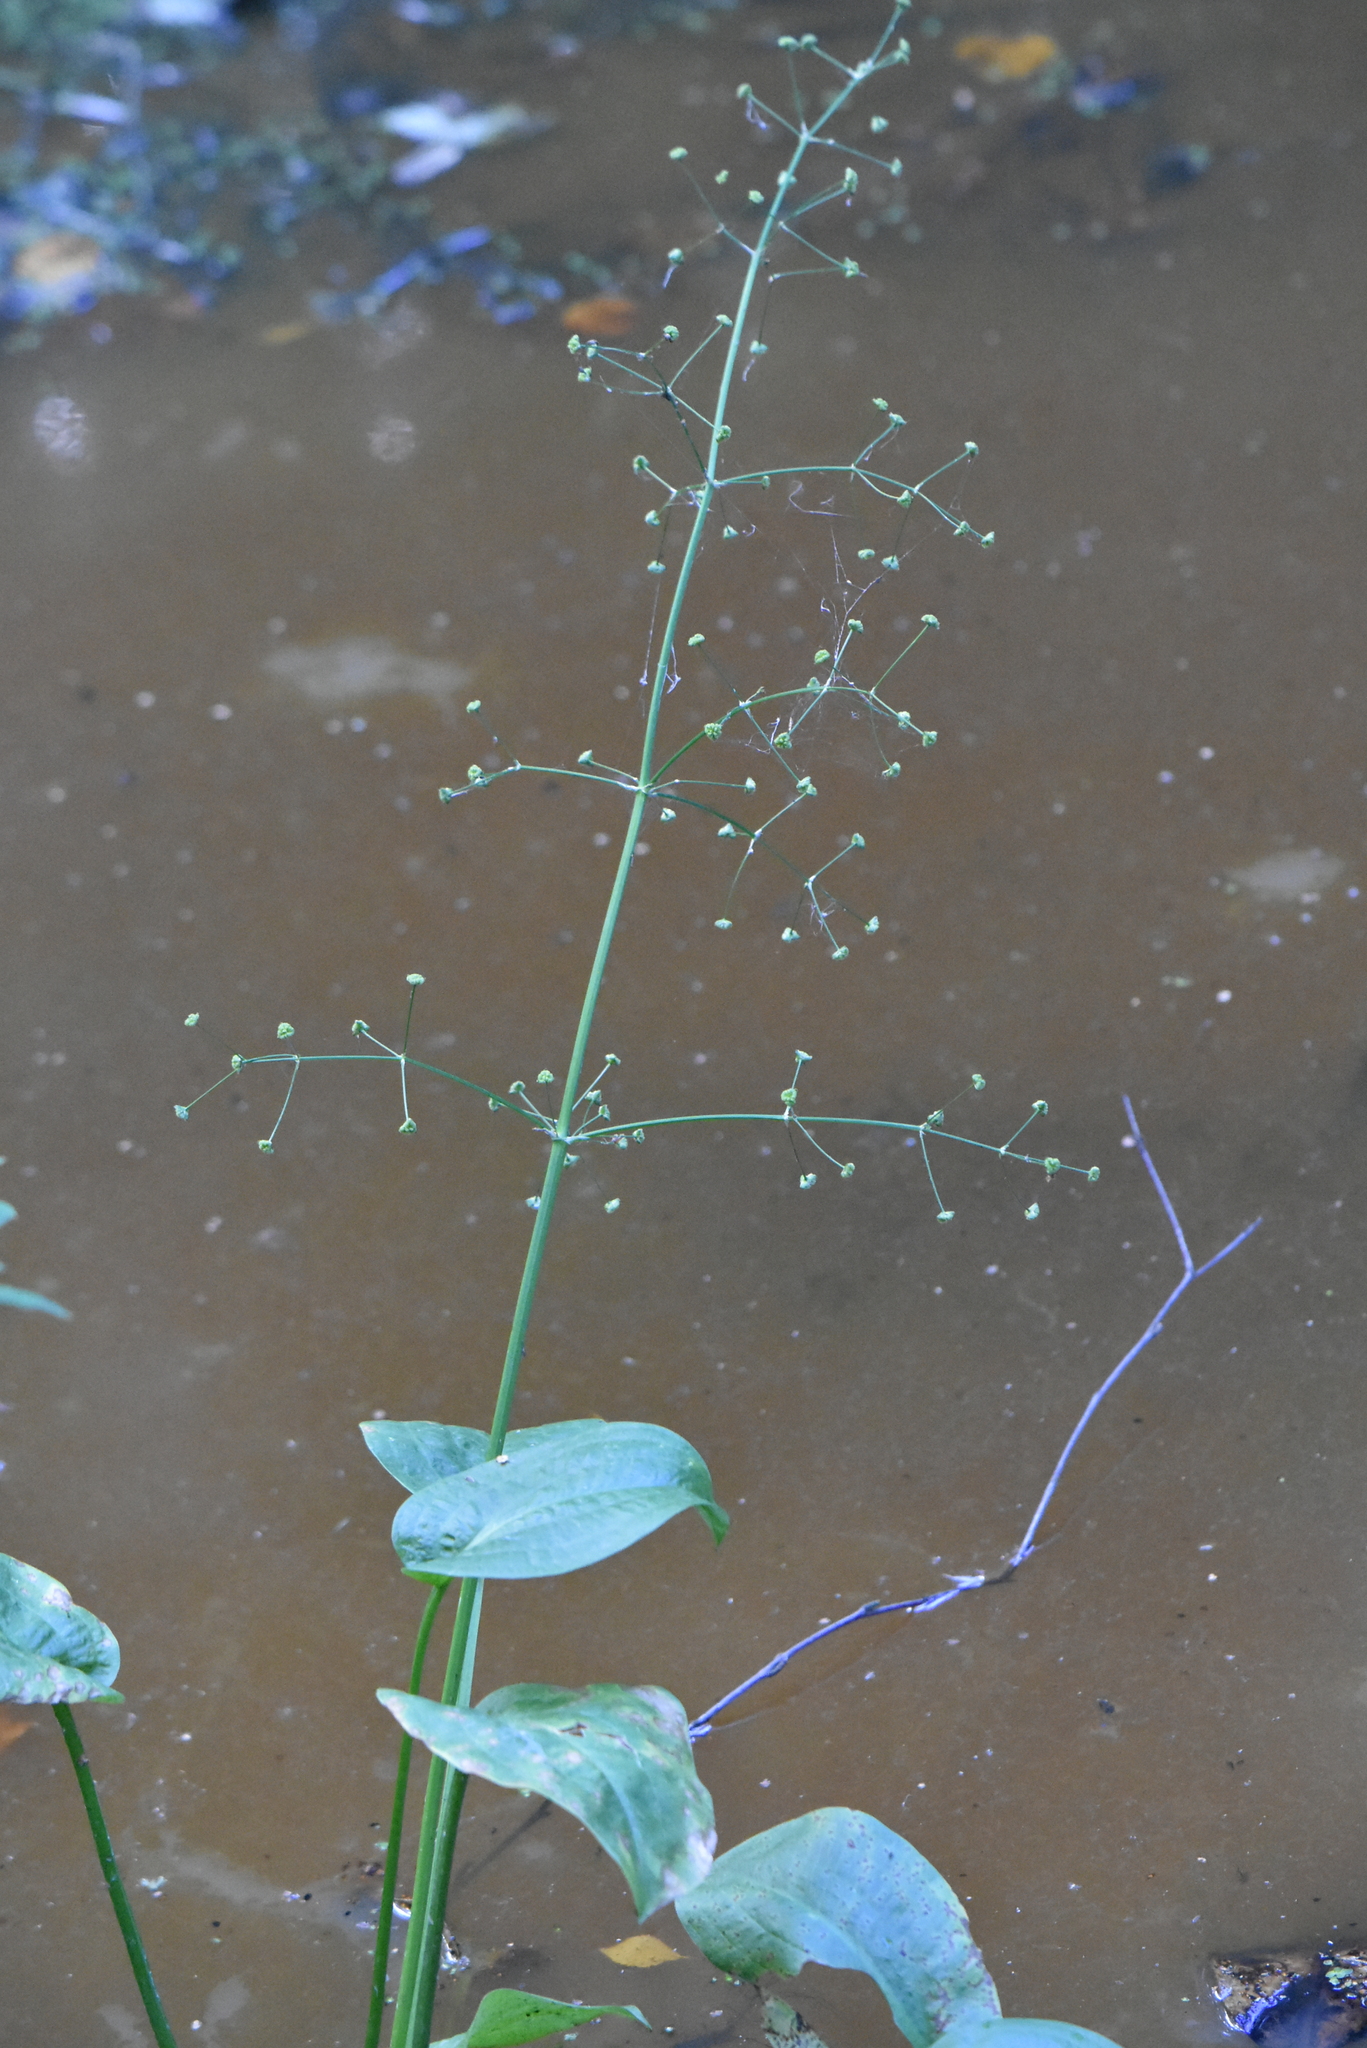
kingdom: Plantae
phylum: Tracheophyta
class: Liliopsida
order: Alismatales
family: Alismataceae
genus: Alisma
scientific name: Alisma plantago-aquatica
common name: Water-plantain
